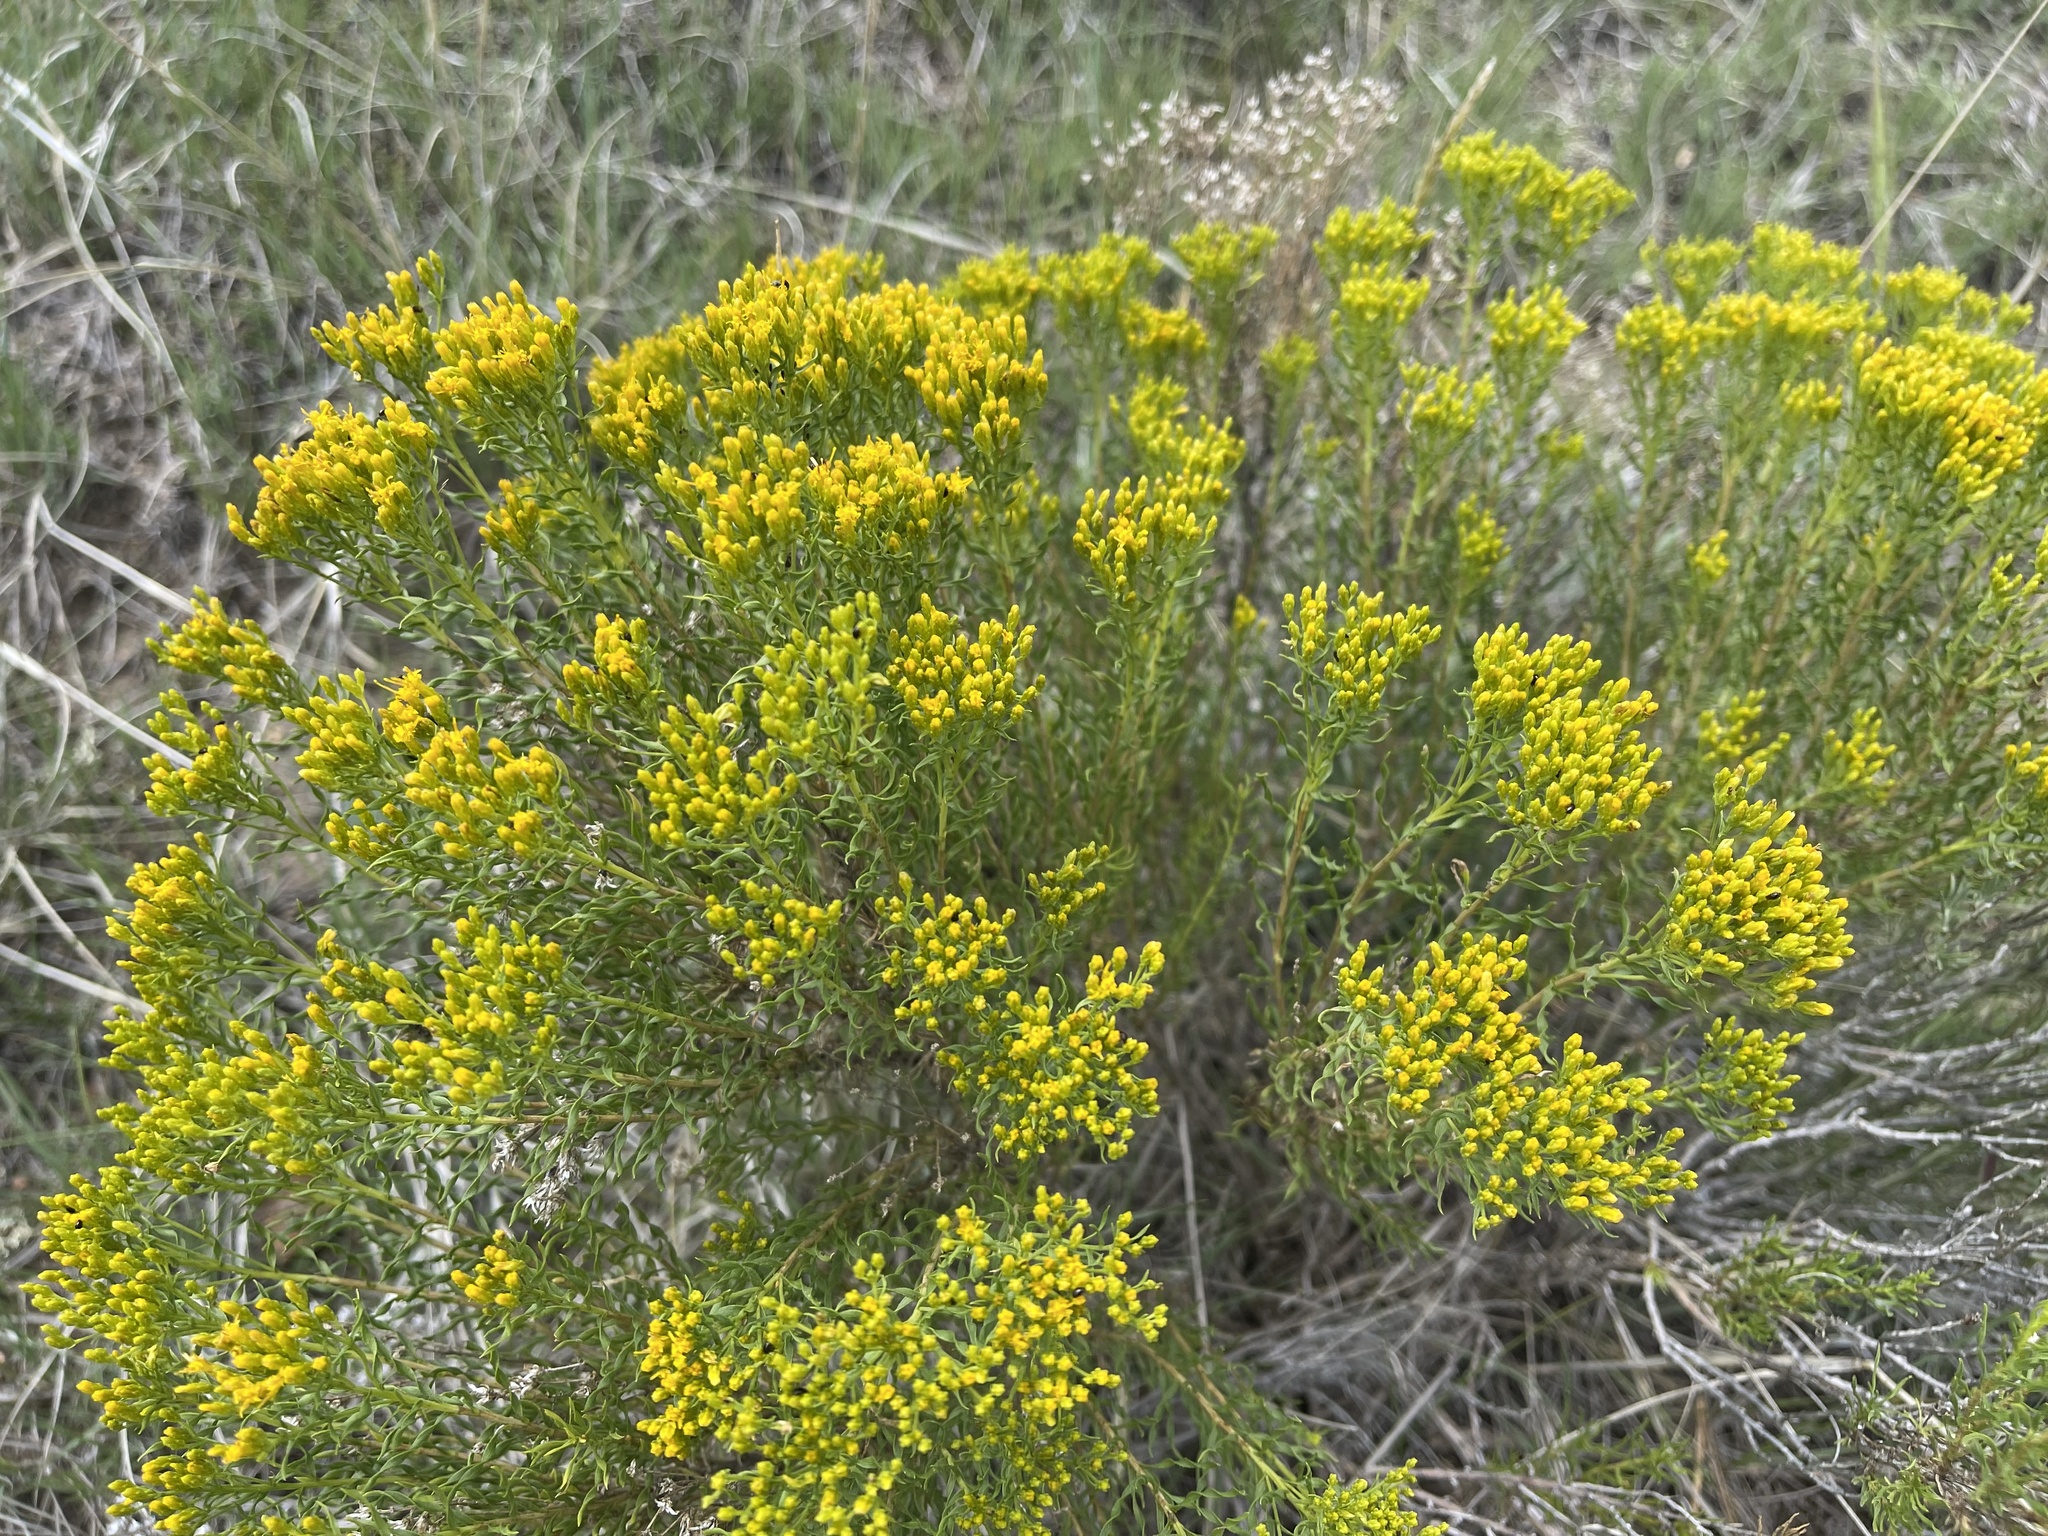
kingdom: Plantae
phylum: Tracheophyta
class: Magnoliopsida
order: Asterales
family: Asteraceae
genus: Chrysothamnus
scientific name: Chrysothamnus viscidiflorus
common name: Yellow rabbitbrush
